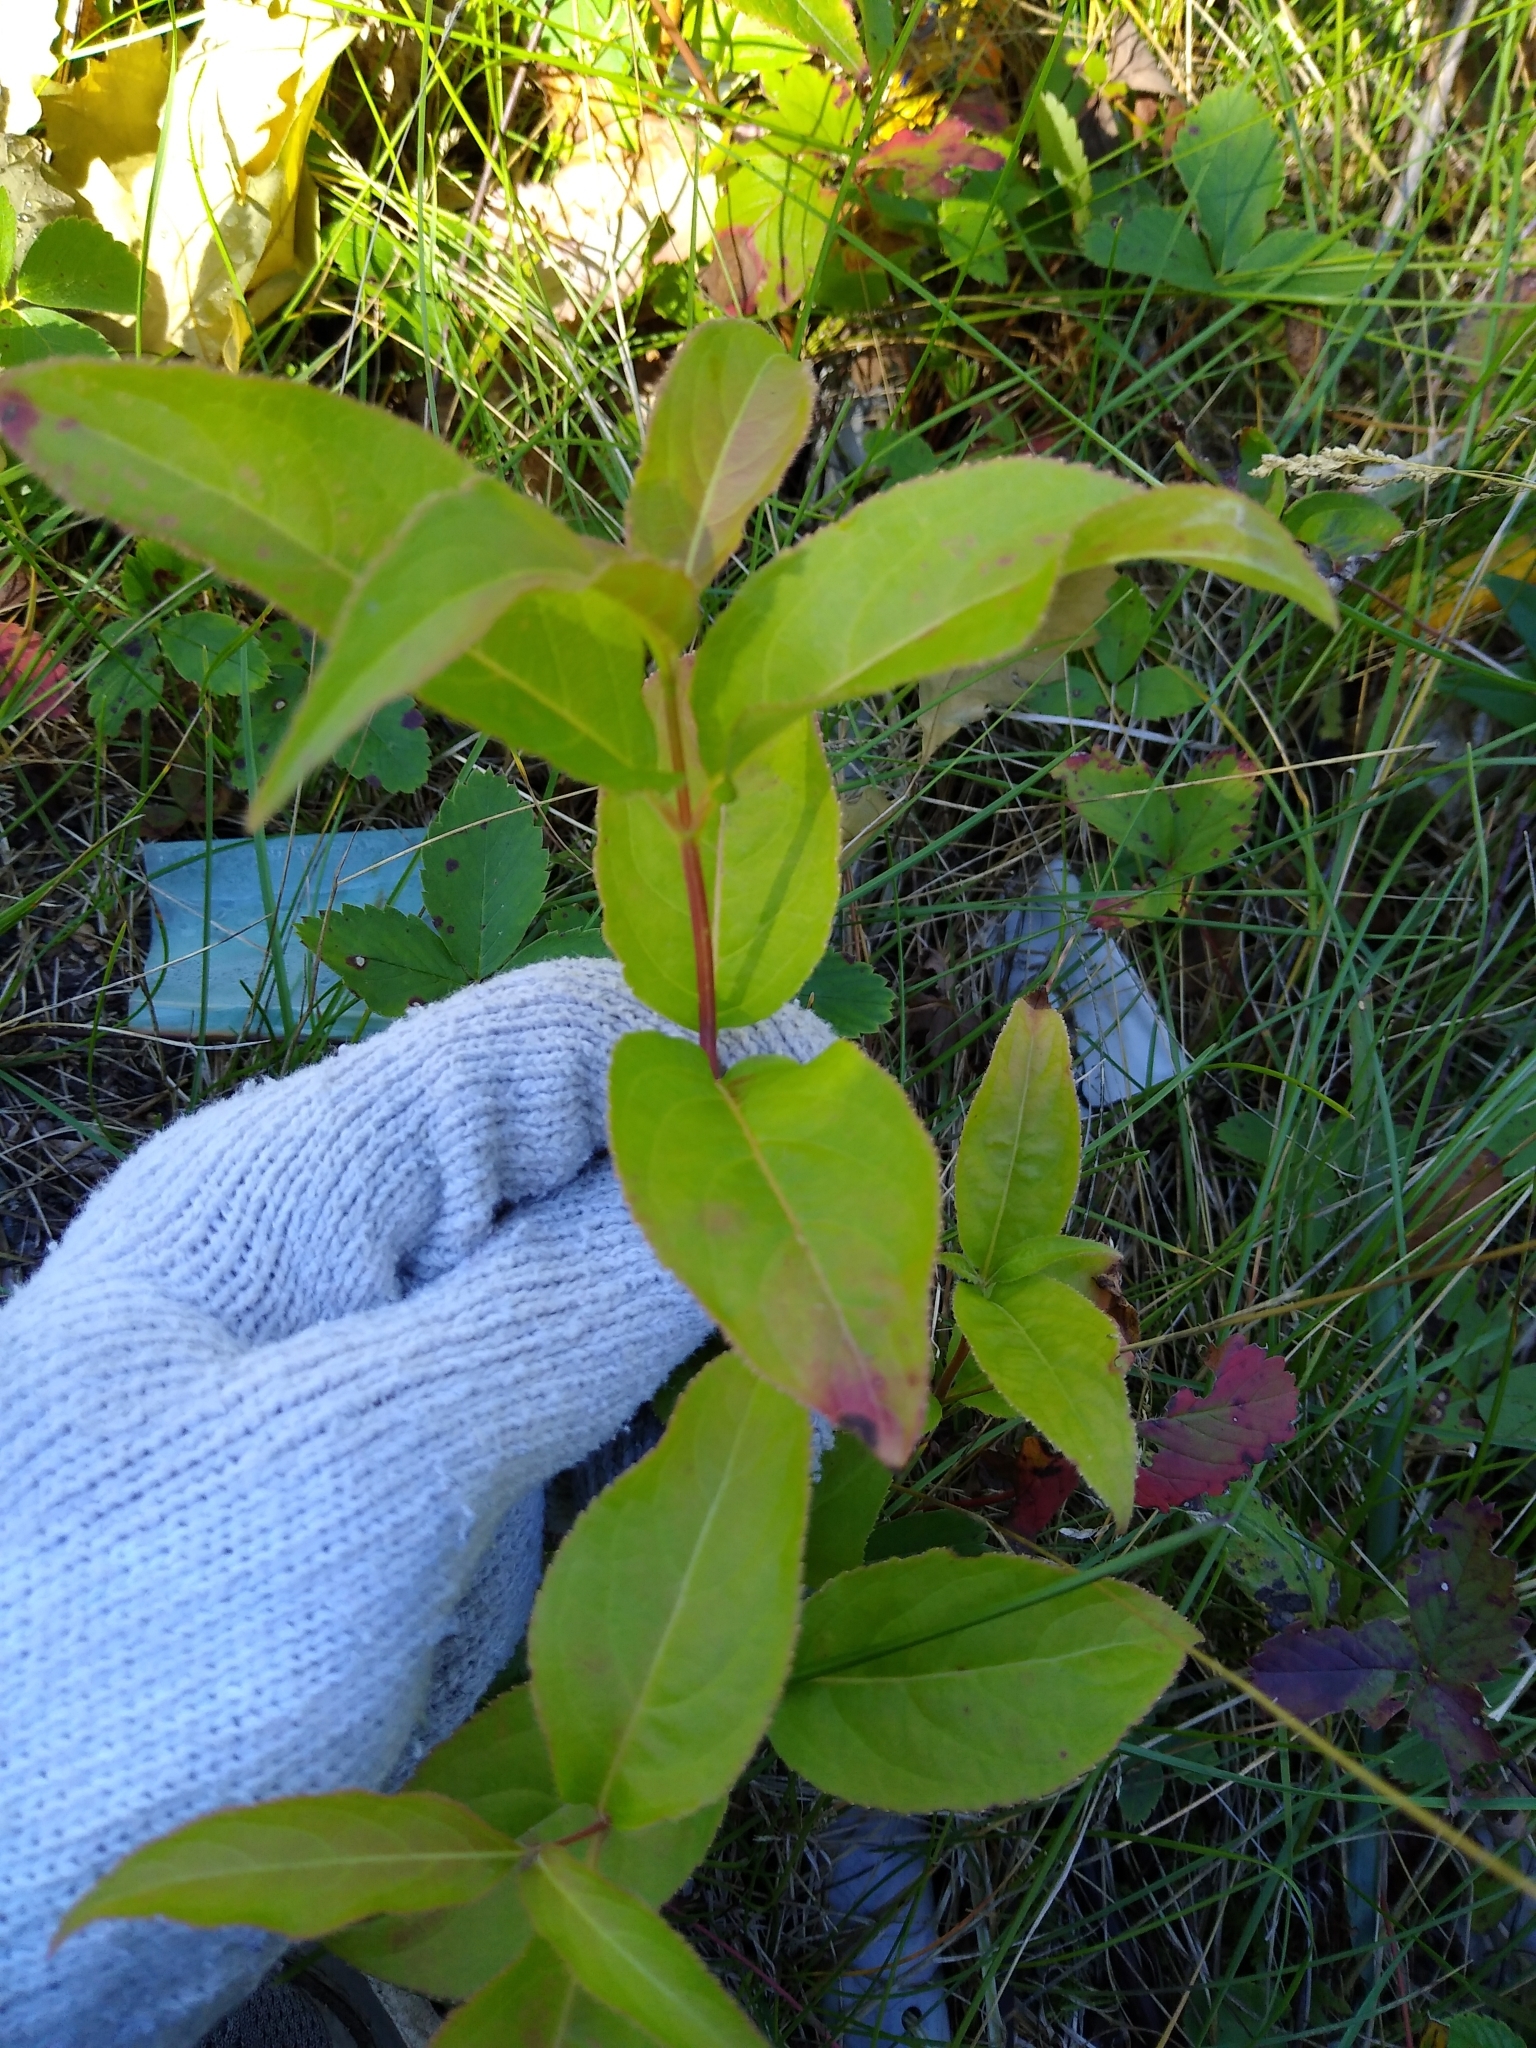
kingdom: Plantae
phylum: Tracheophyta
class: Magnoliopsida
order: Dipsacales
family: Caprifoliaceae
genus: Diervilla
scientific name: Diervilla lonicera
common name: Bush-honeysuckle
